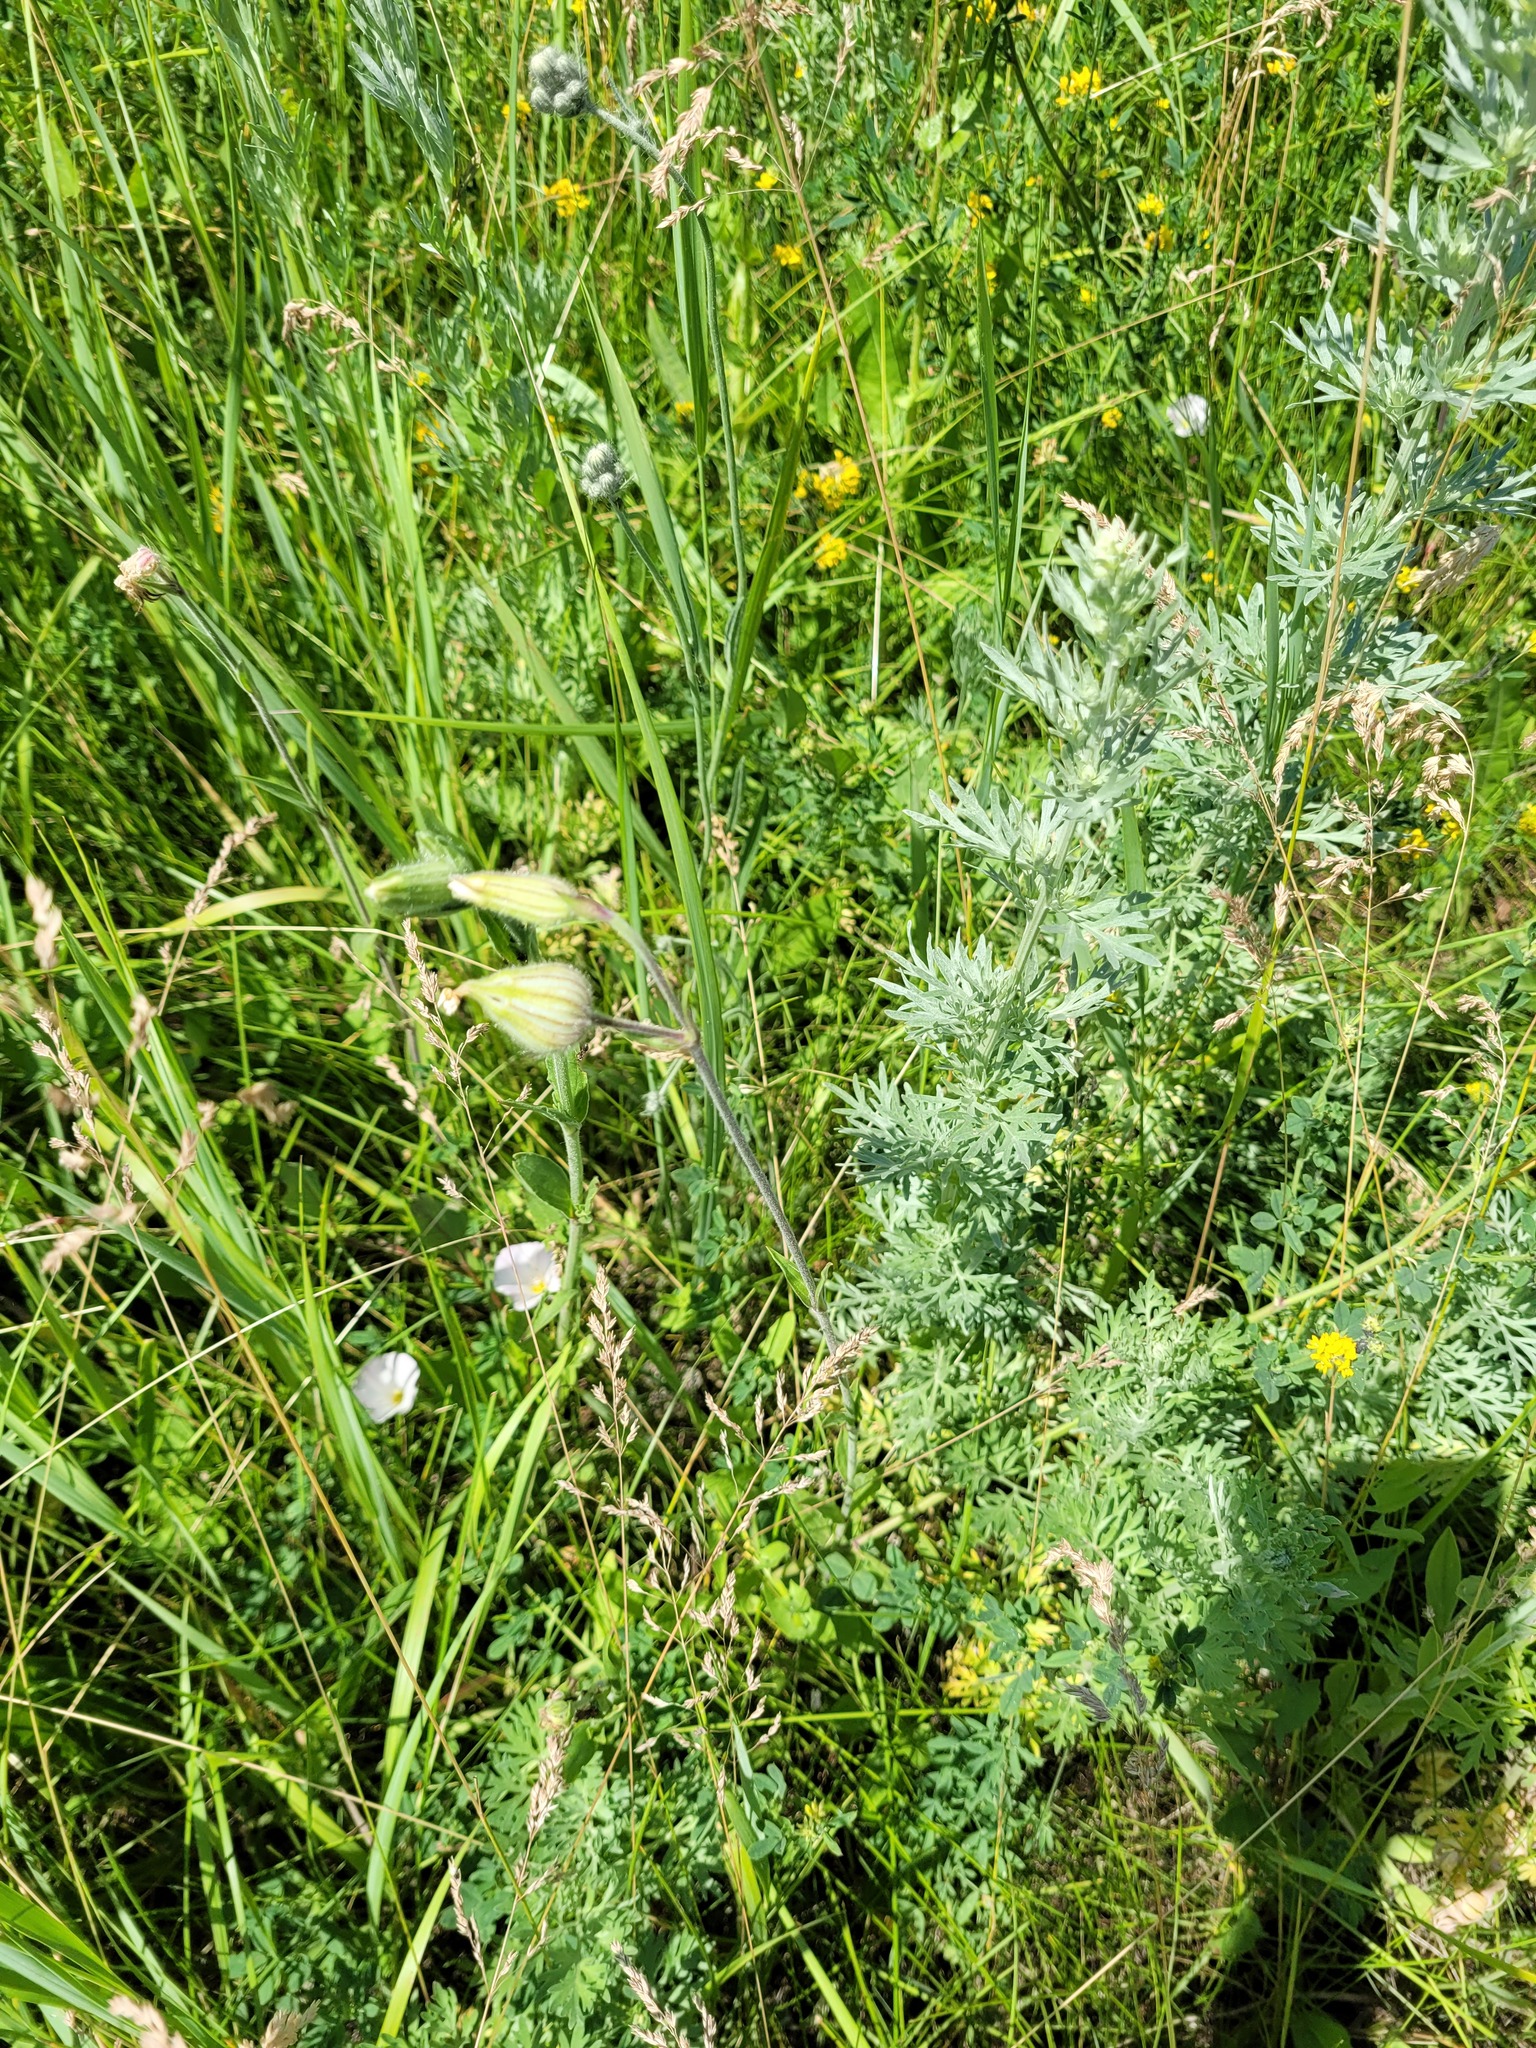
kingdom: Plantae
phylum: Tracheophyta
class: Magnoliopsida
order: Caryophyllales
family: Caryophyllaceae
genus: Silene
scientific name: Silene latifolia
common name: White campion
